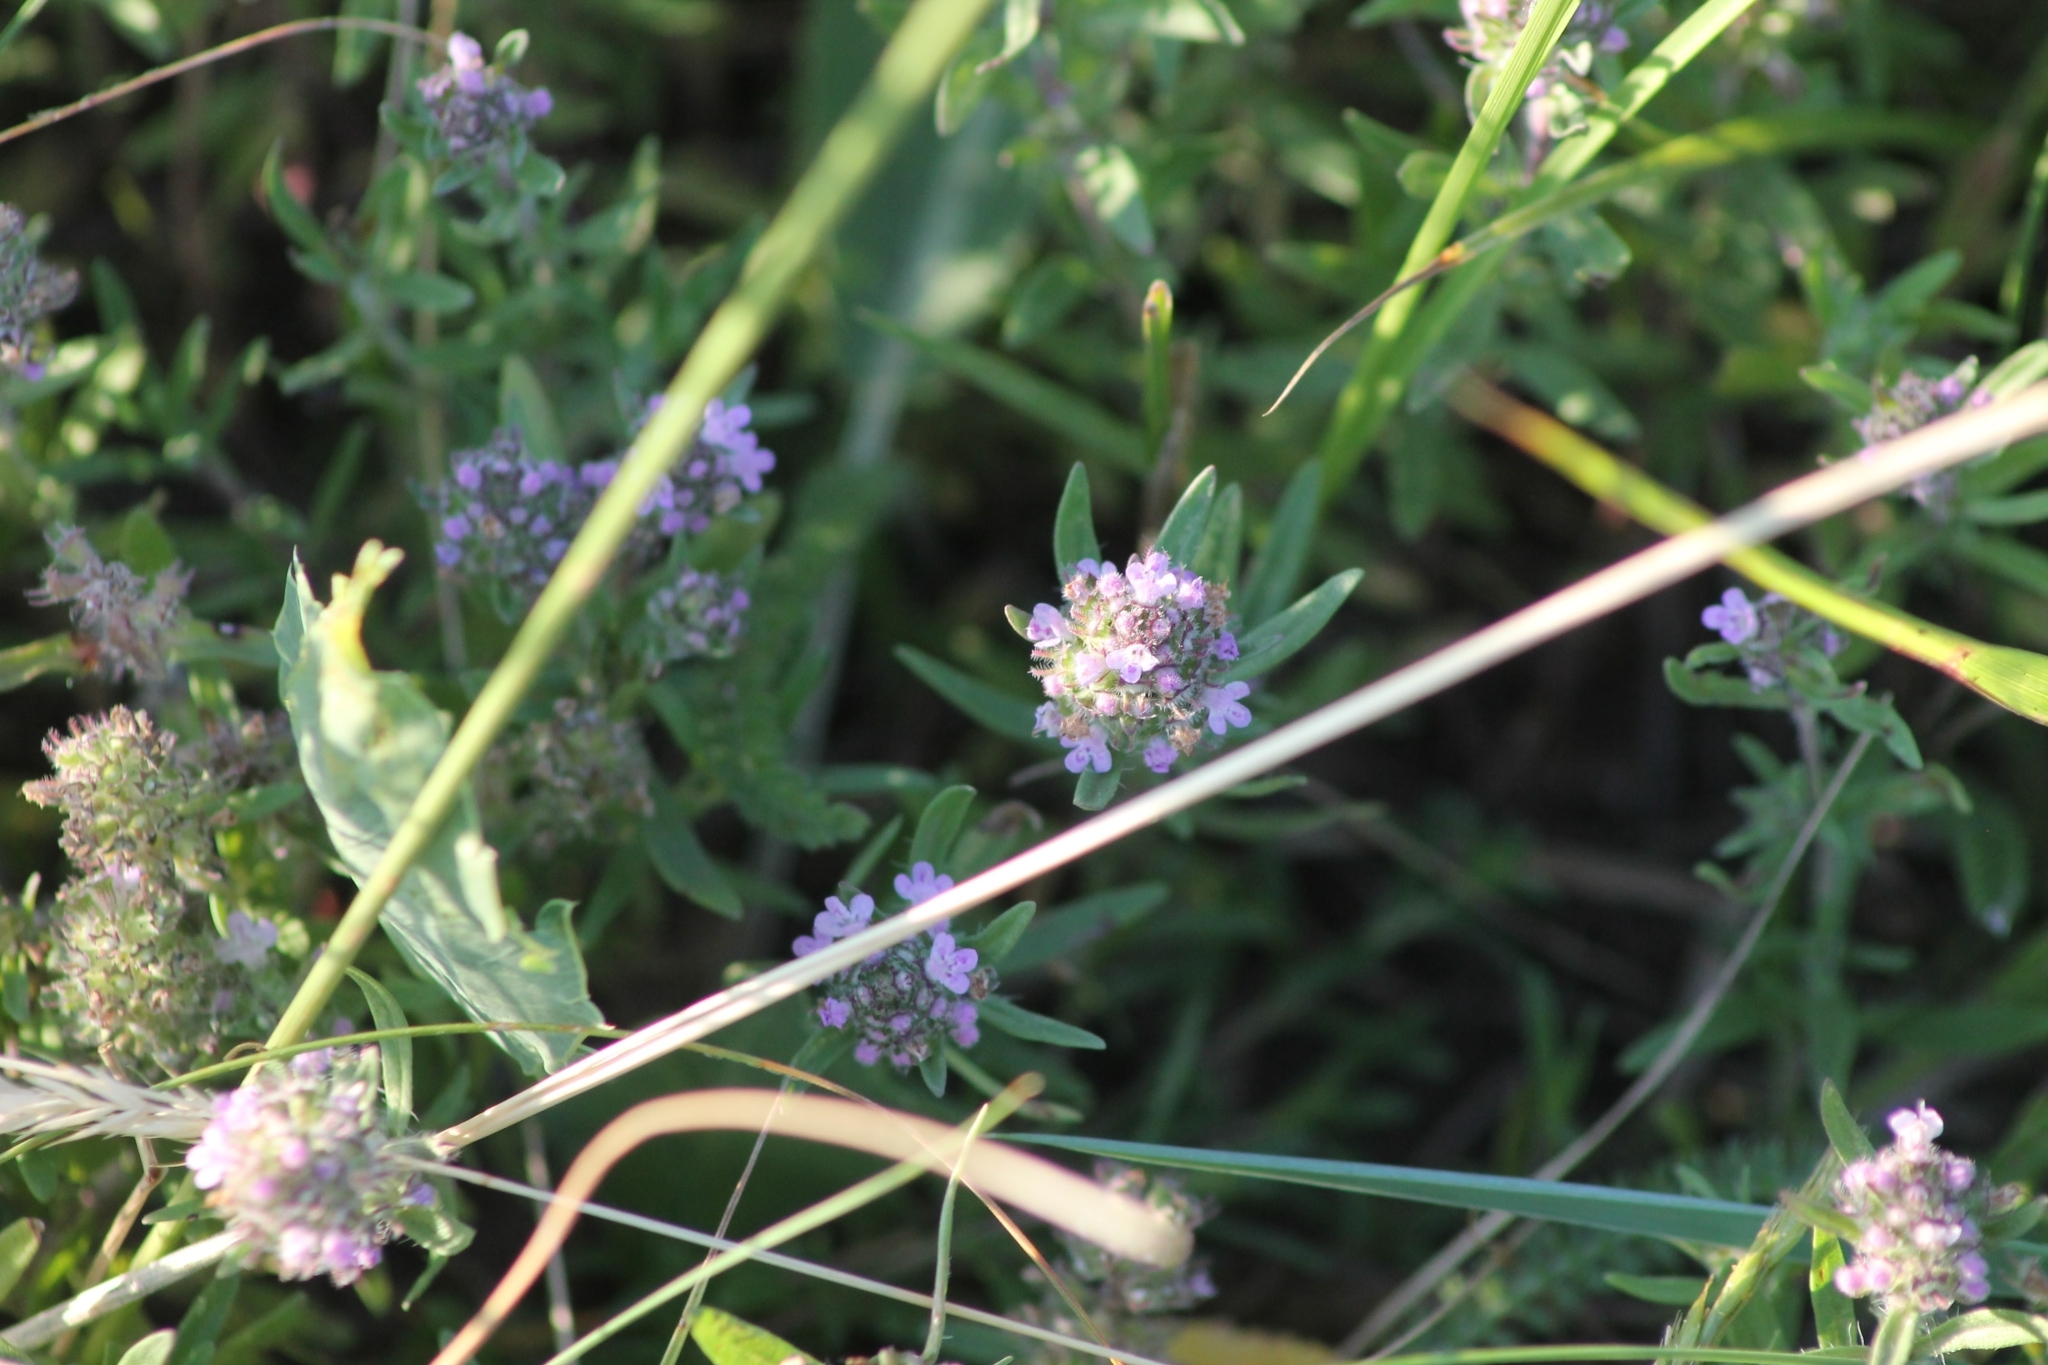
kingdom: Plantae
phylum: Tracheophyta
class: Magnoliopsida
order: Lamiales
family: Lamiaceae
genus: Thymus
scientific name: Thymus pannonicus
